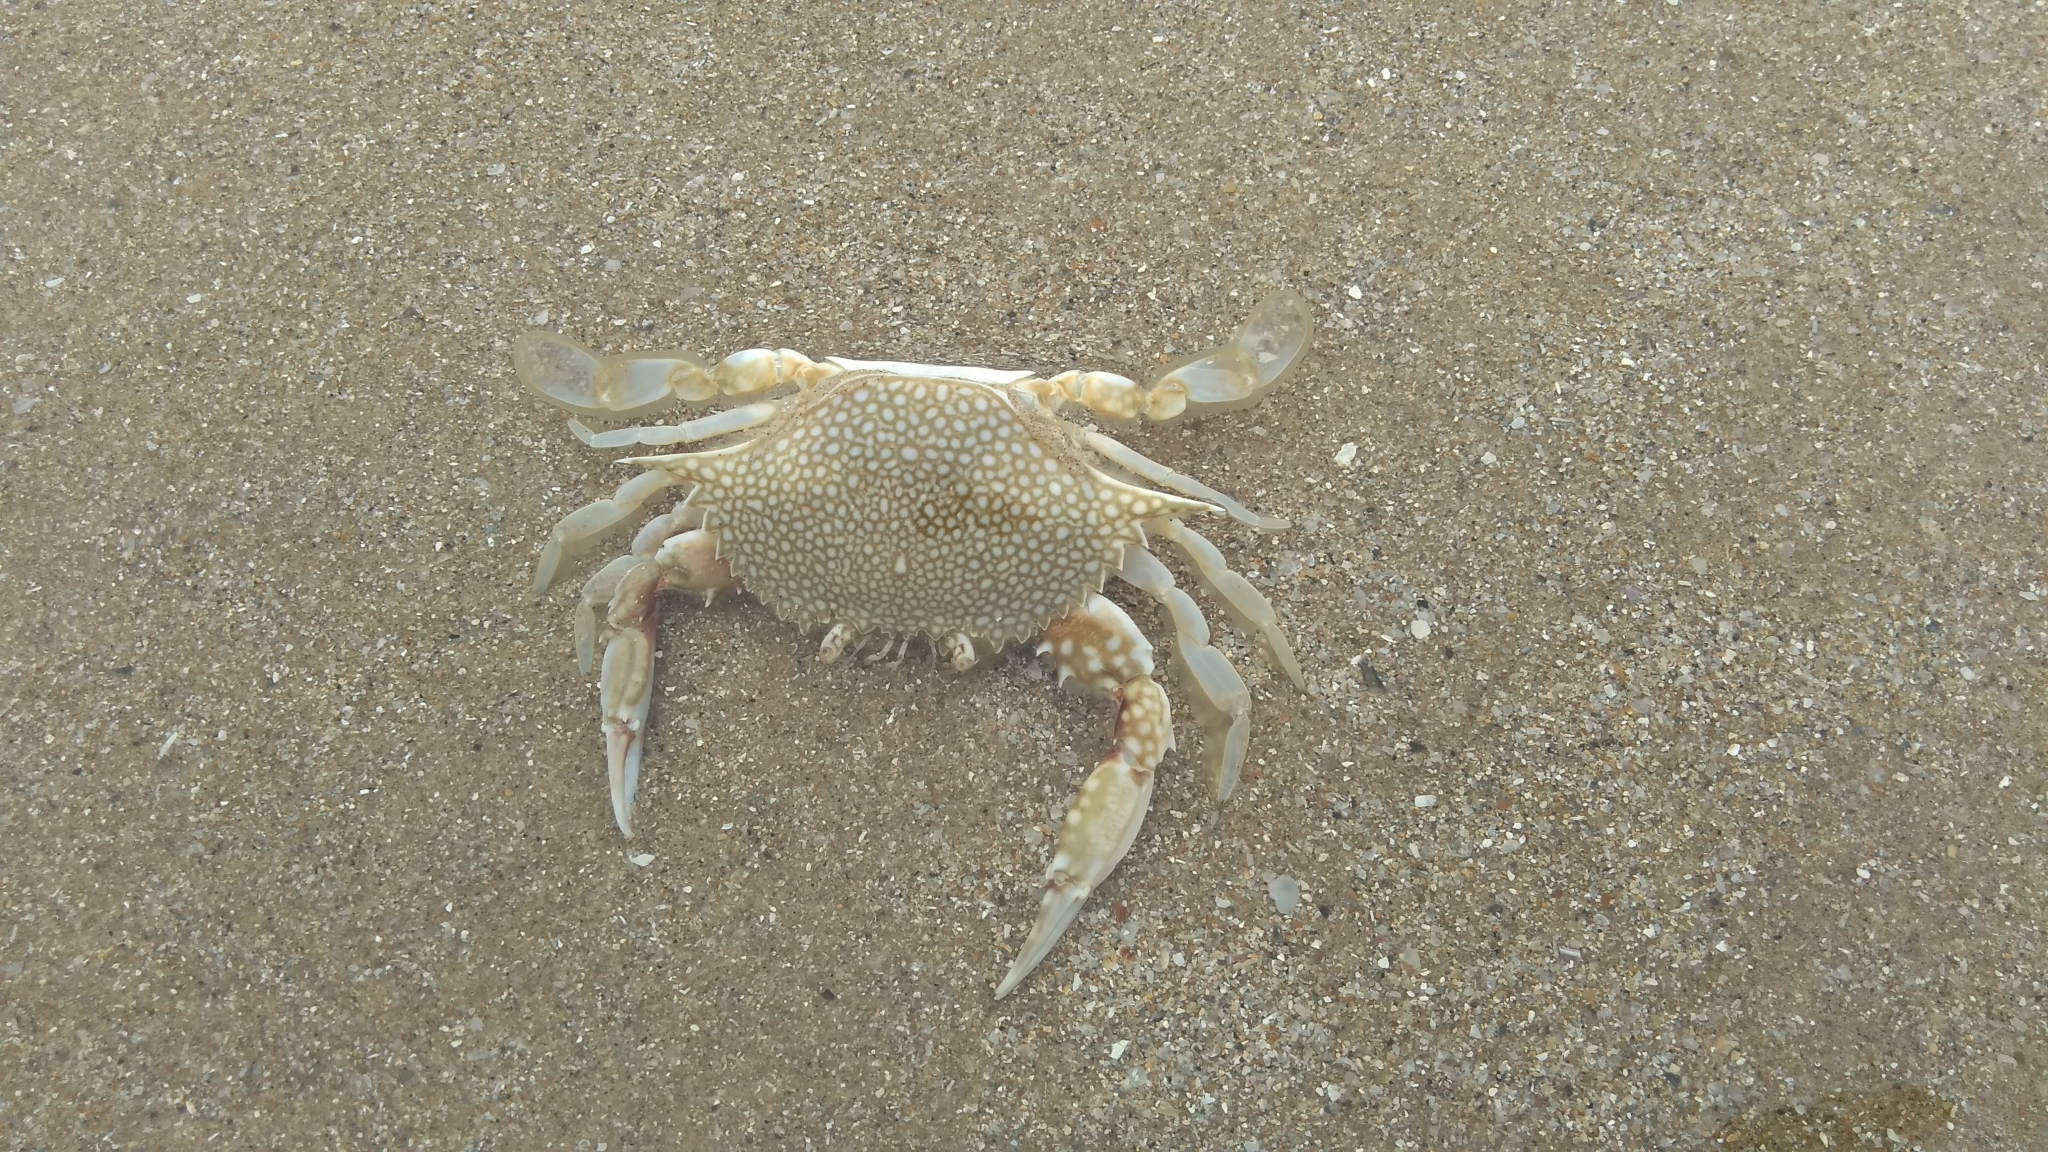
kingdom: Animalia
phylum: Arthropoda
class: Malacostraca
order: Decapoda
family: Portunidae
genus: Arenaeus
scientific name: Arenaeus cribrarius
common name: Speckled crab
